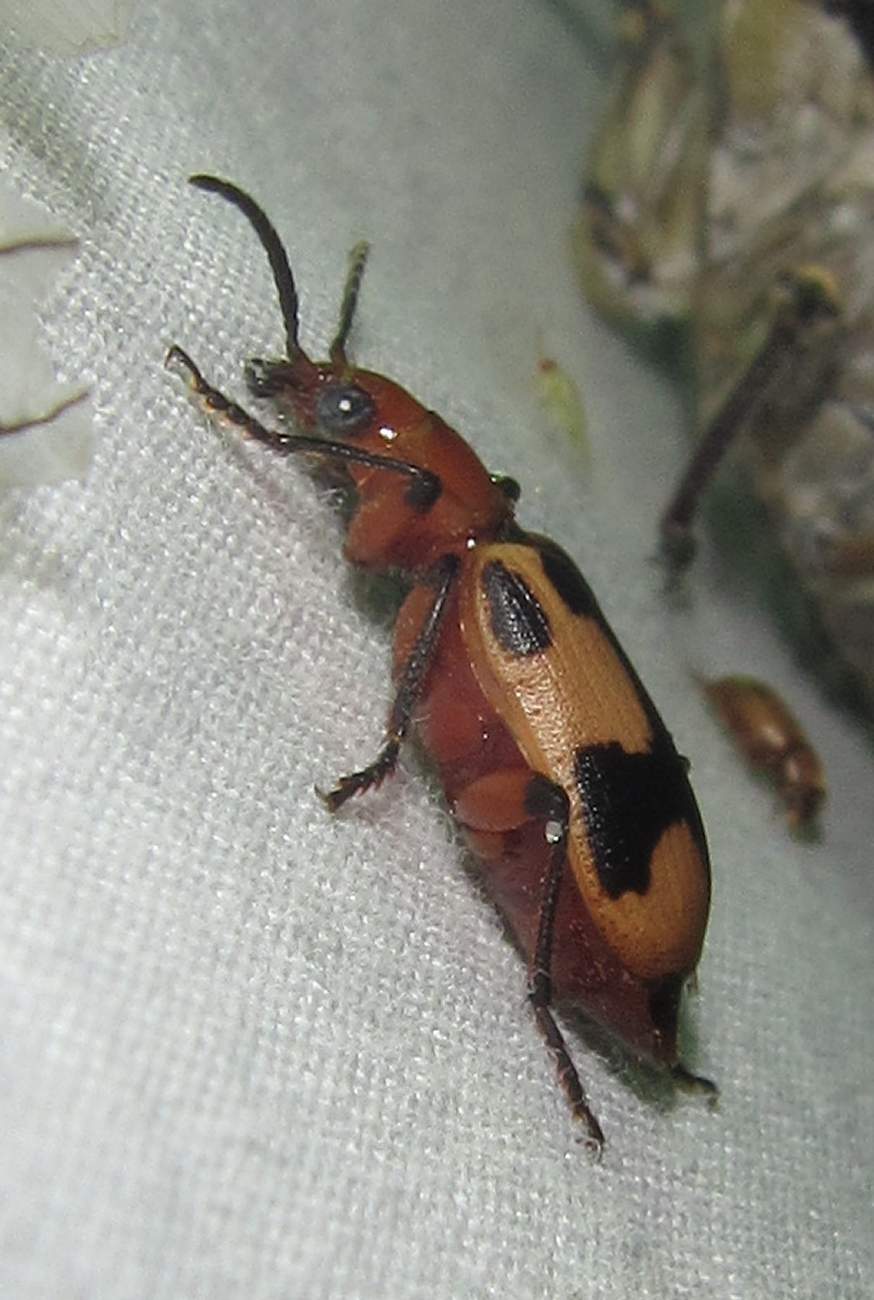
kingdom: Animalia
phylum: Arthropoda
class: Insecta
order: Coleoptera
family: Carabidae
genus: Lebistina
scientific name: Lebistina subcruciata
